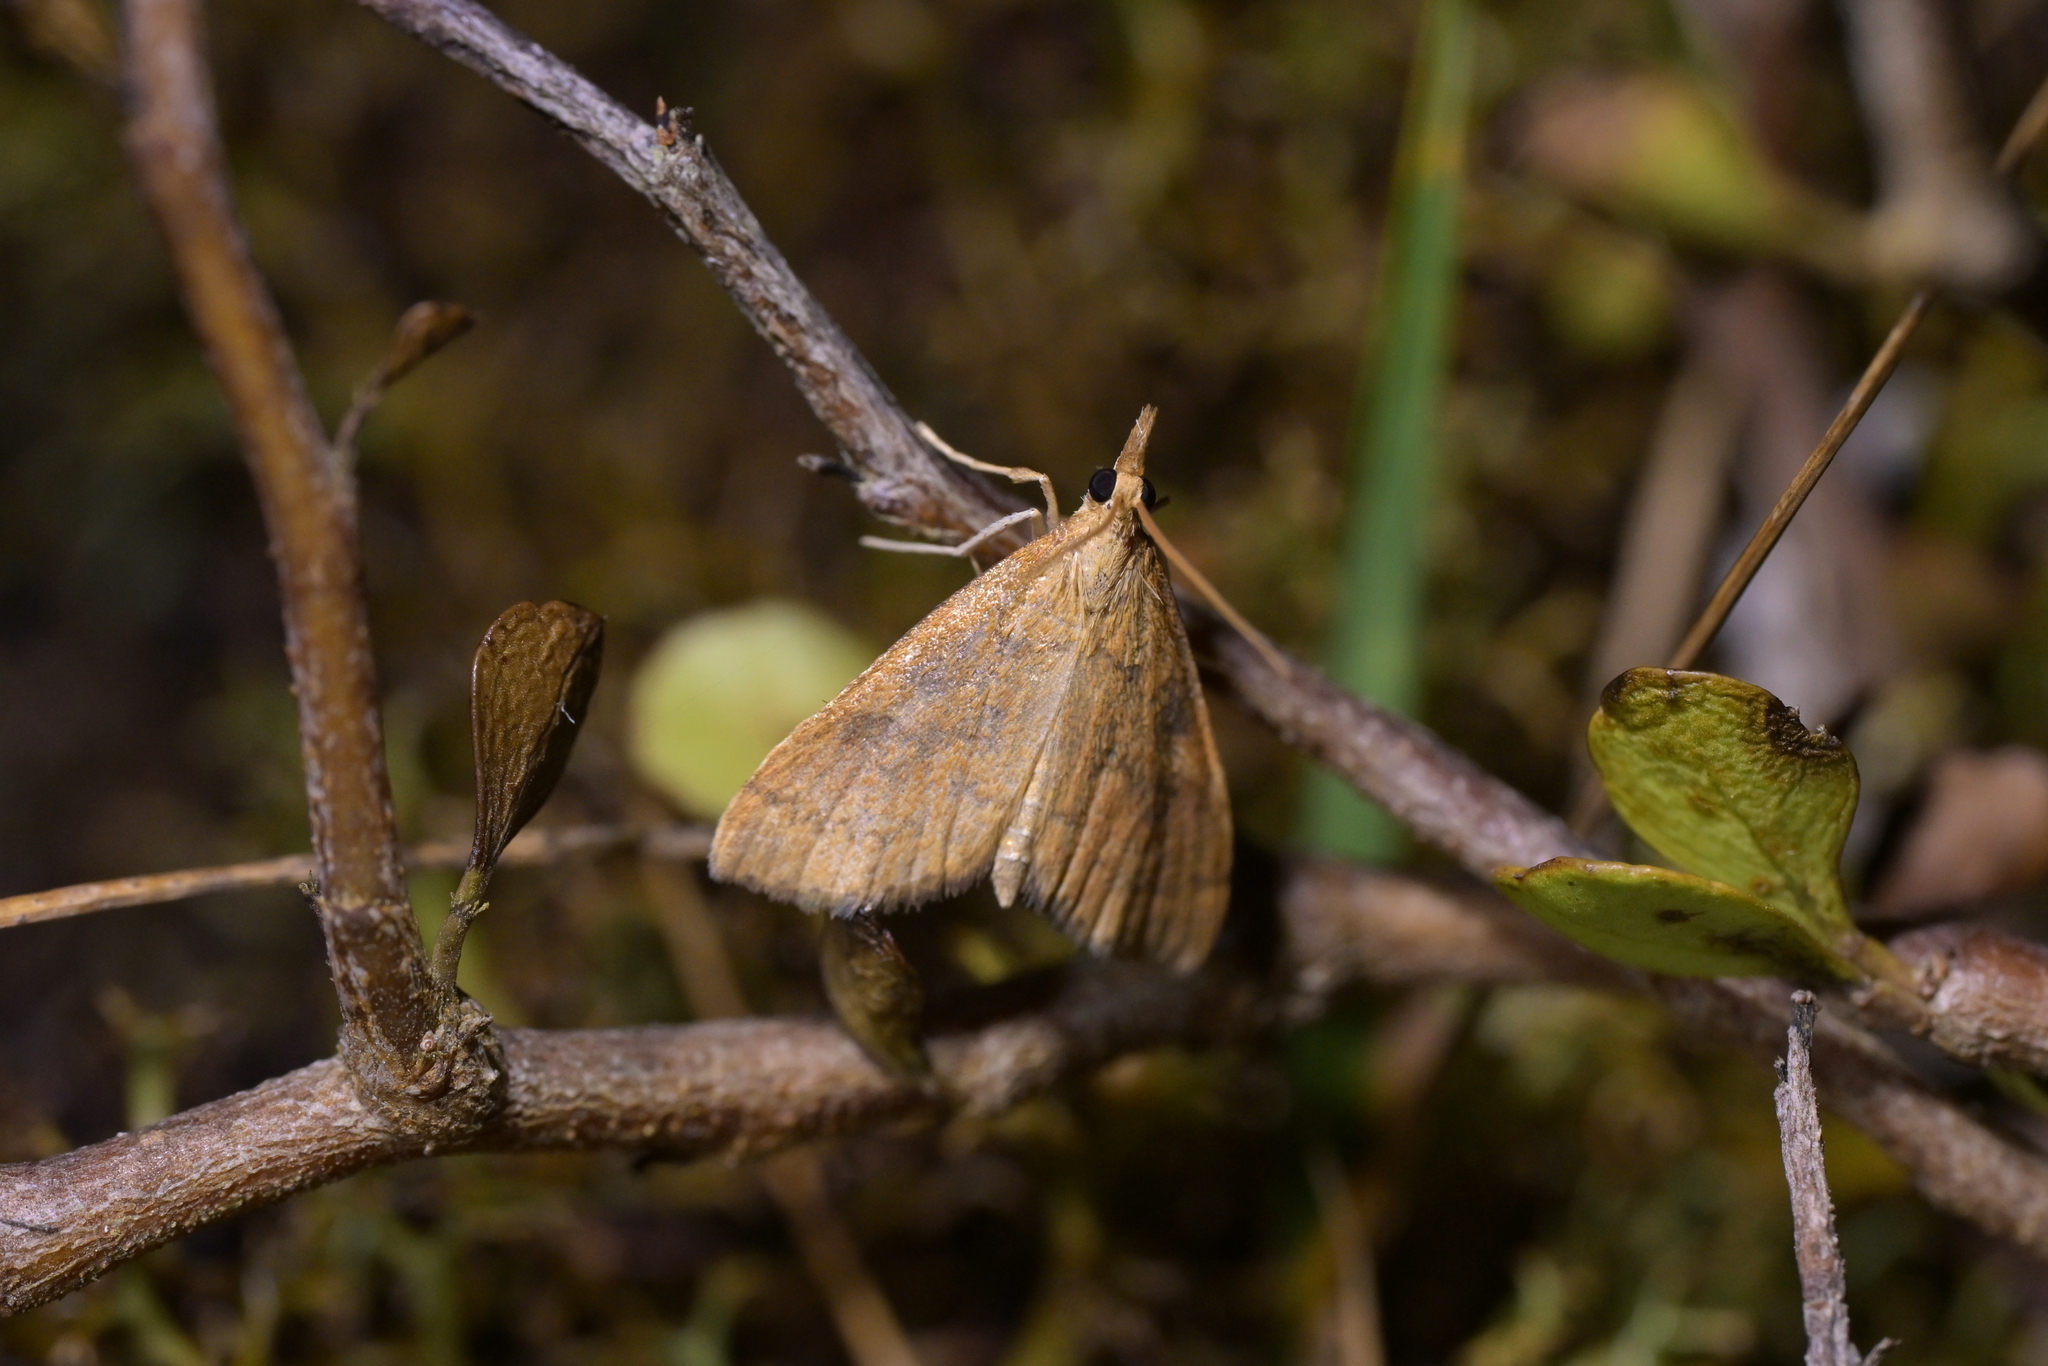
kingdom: Animalia
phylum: Arthropoda
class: Insecta
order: Lepidoptera
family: Crambidae
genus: Udea
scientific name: Udea Mnesictena flavidalis
